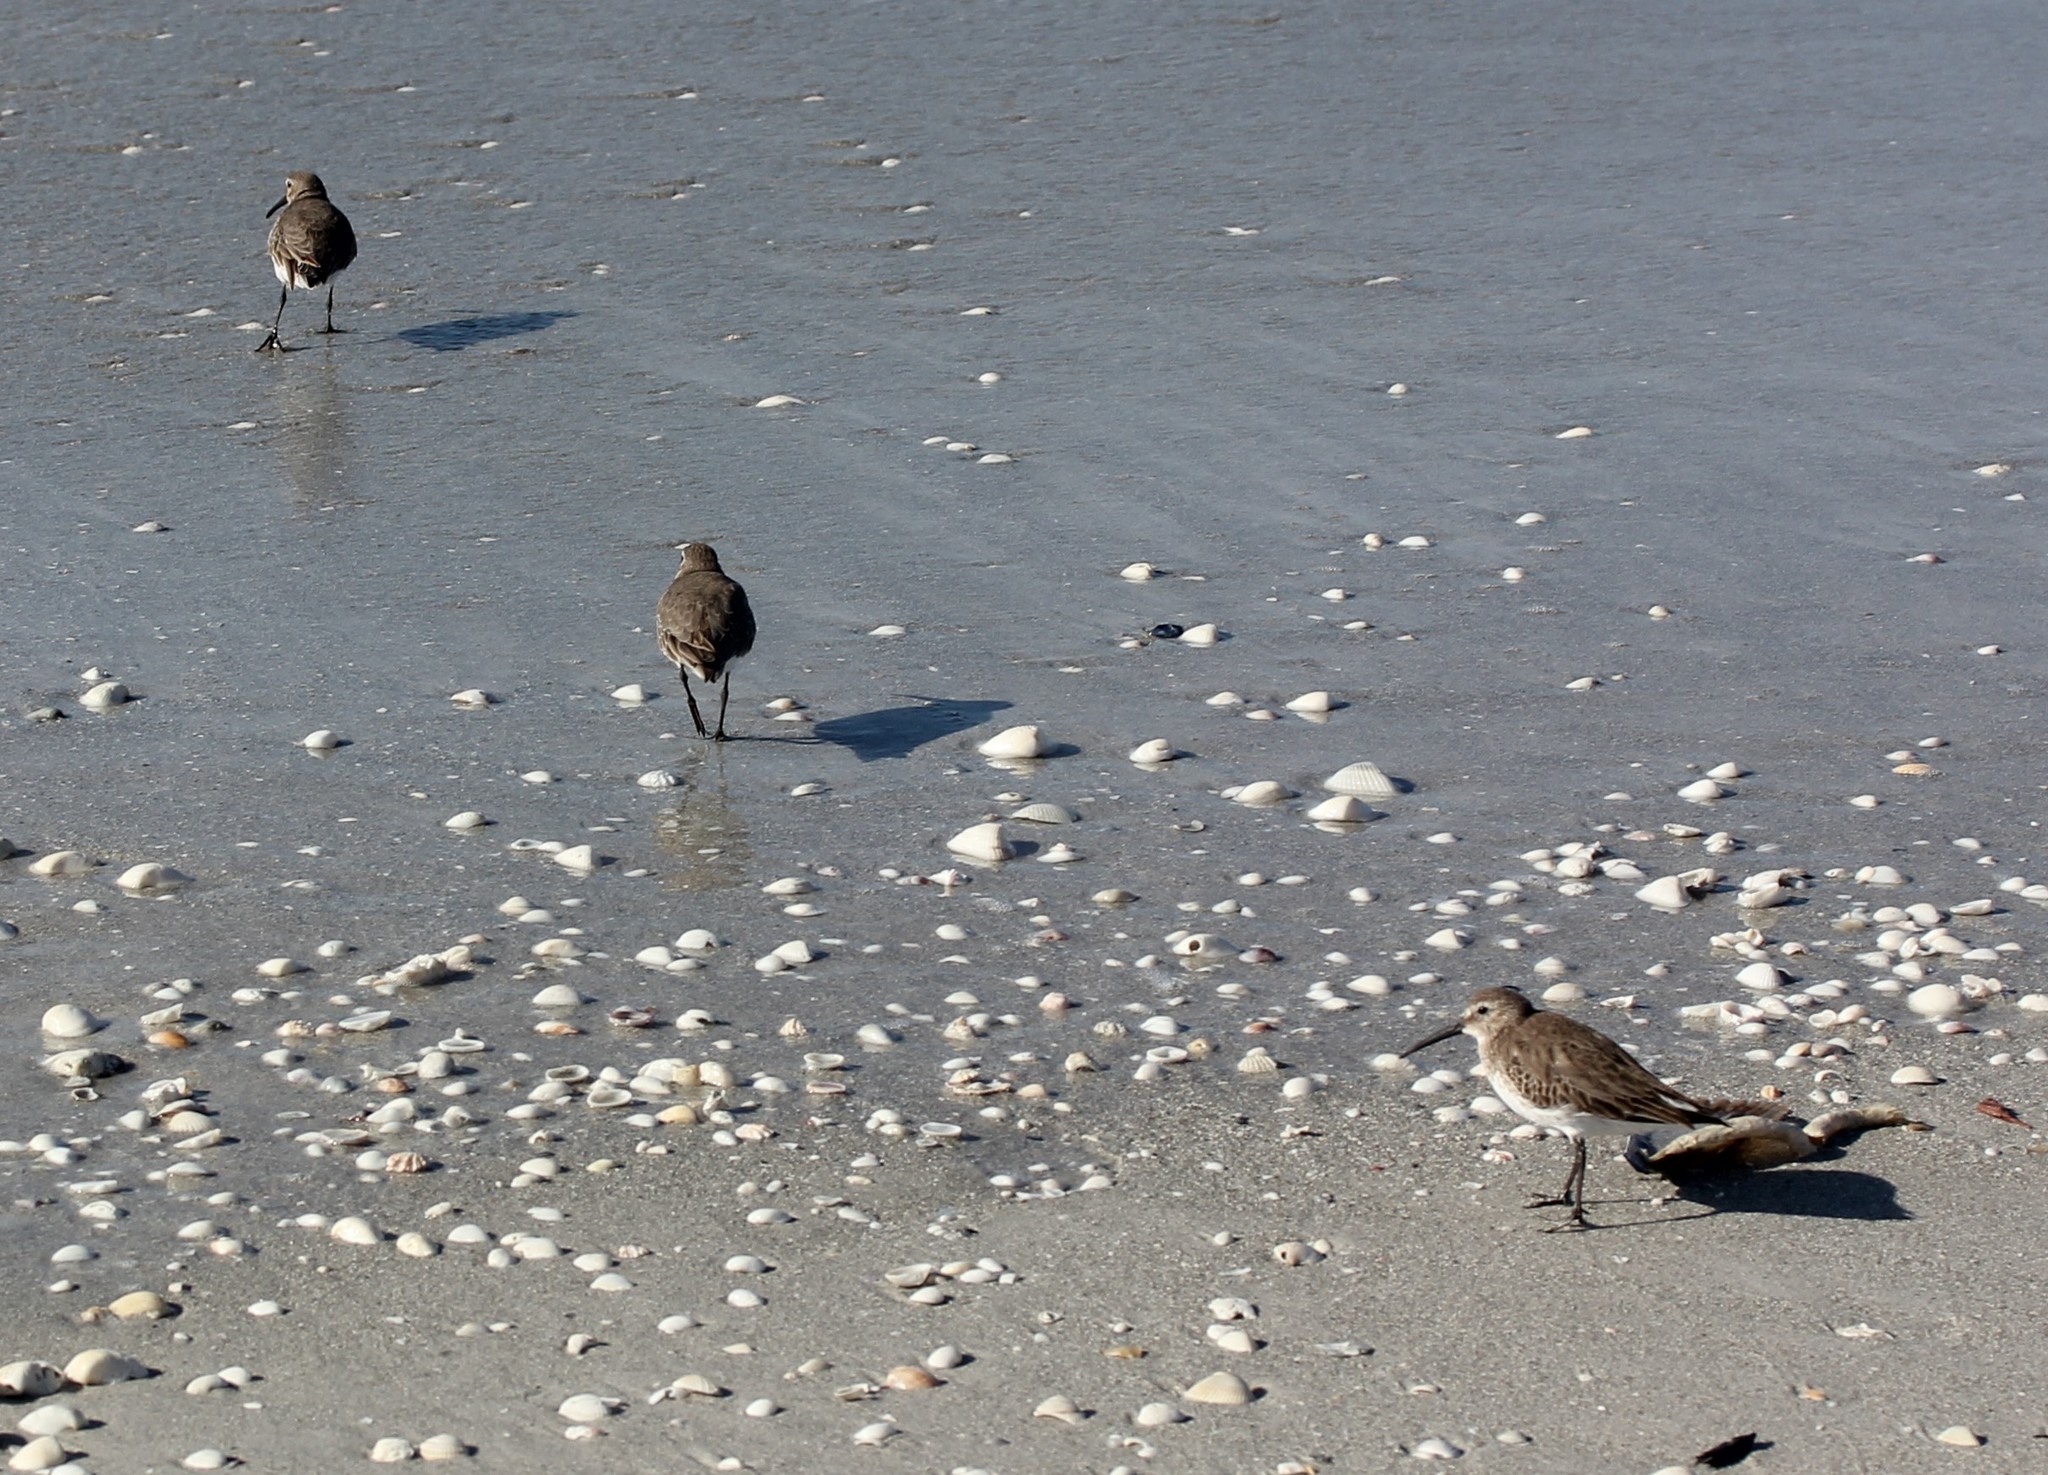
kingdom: Animalia
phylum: Chordata
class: Aves
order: Charadriiformes
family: Scolopacidae
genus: Calidris
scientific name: Calidris canutus
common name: Red knot
